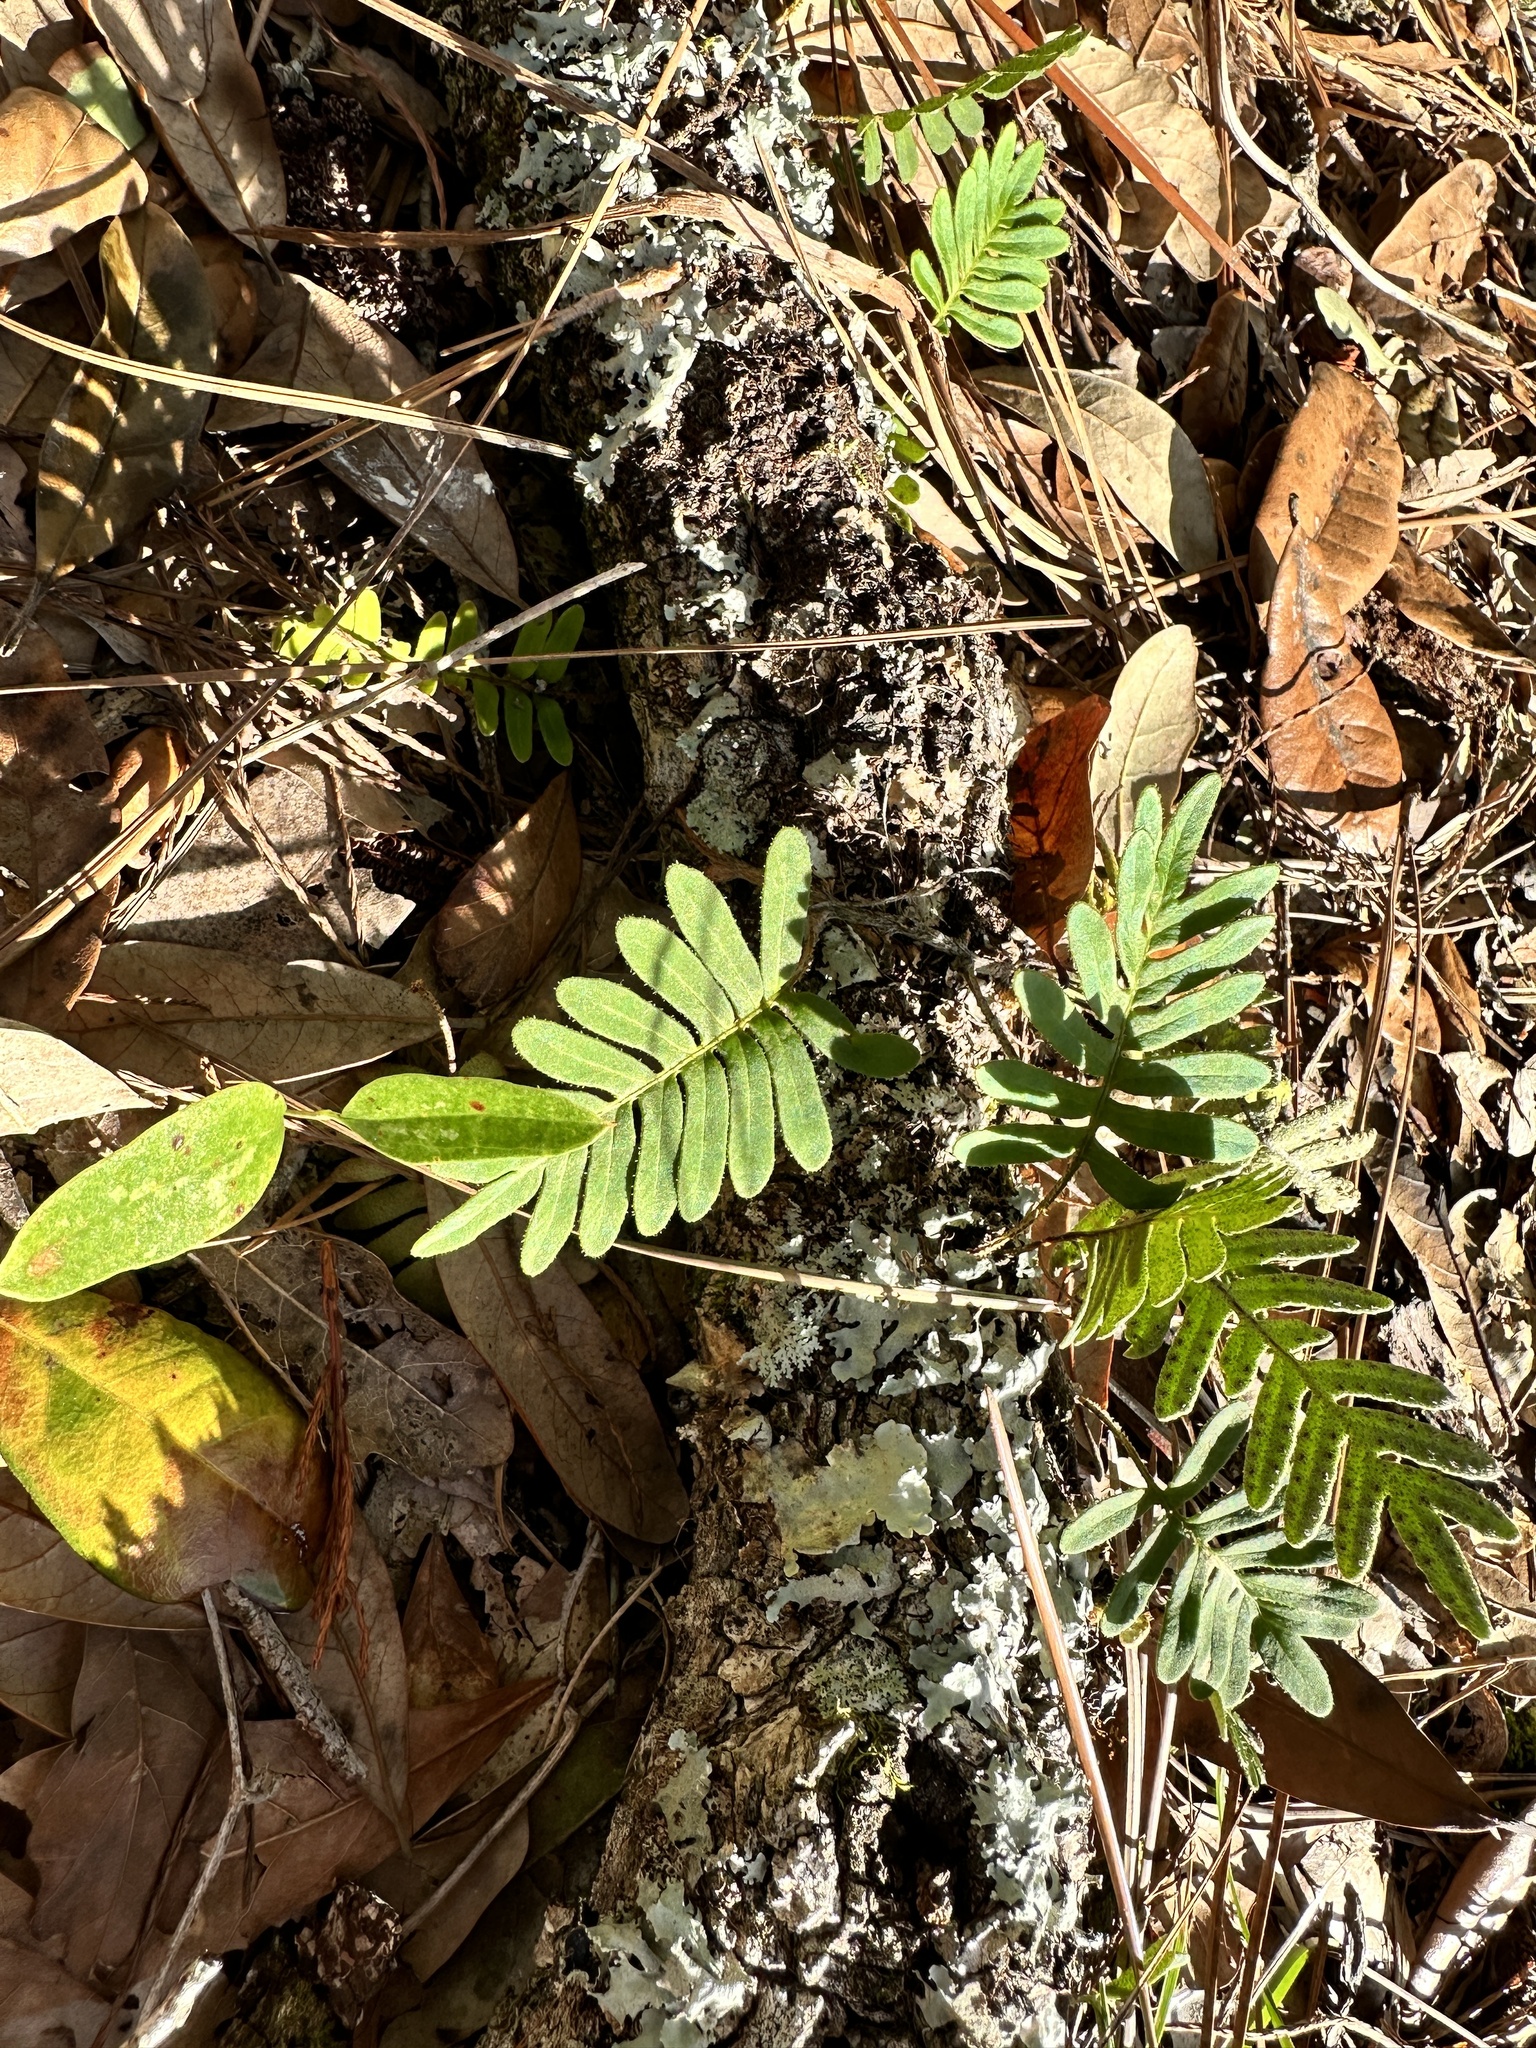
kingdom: Plantae
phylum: Tracheophyta
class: Polypodiopsida
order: Polypodiales
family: Polypodiaceae
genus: Pleopeltis
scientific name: Pleopeltis michauxiana
